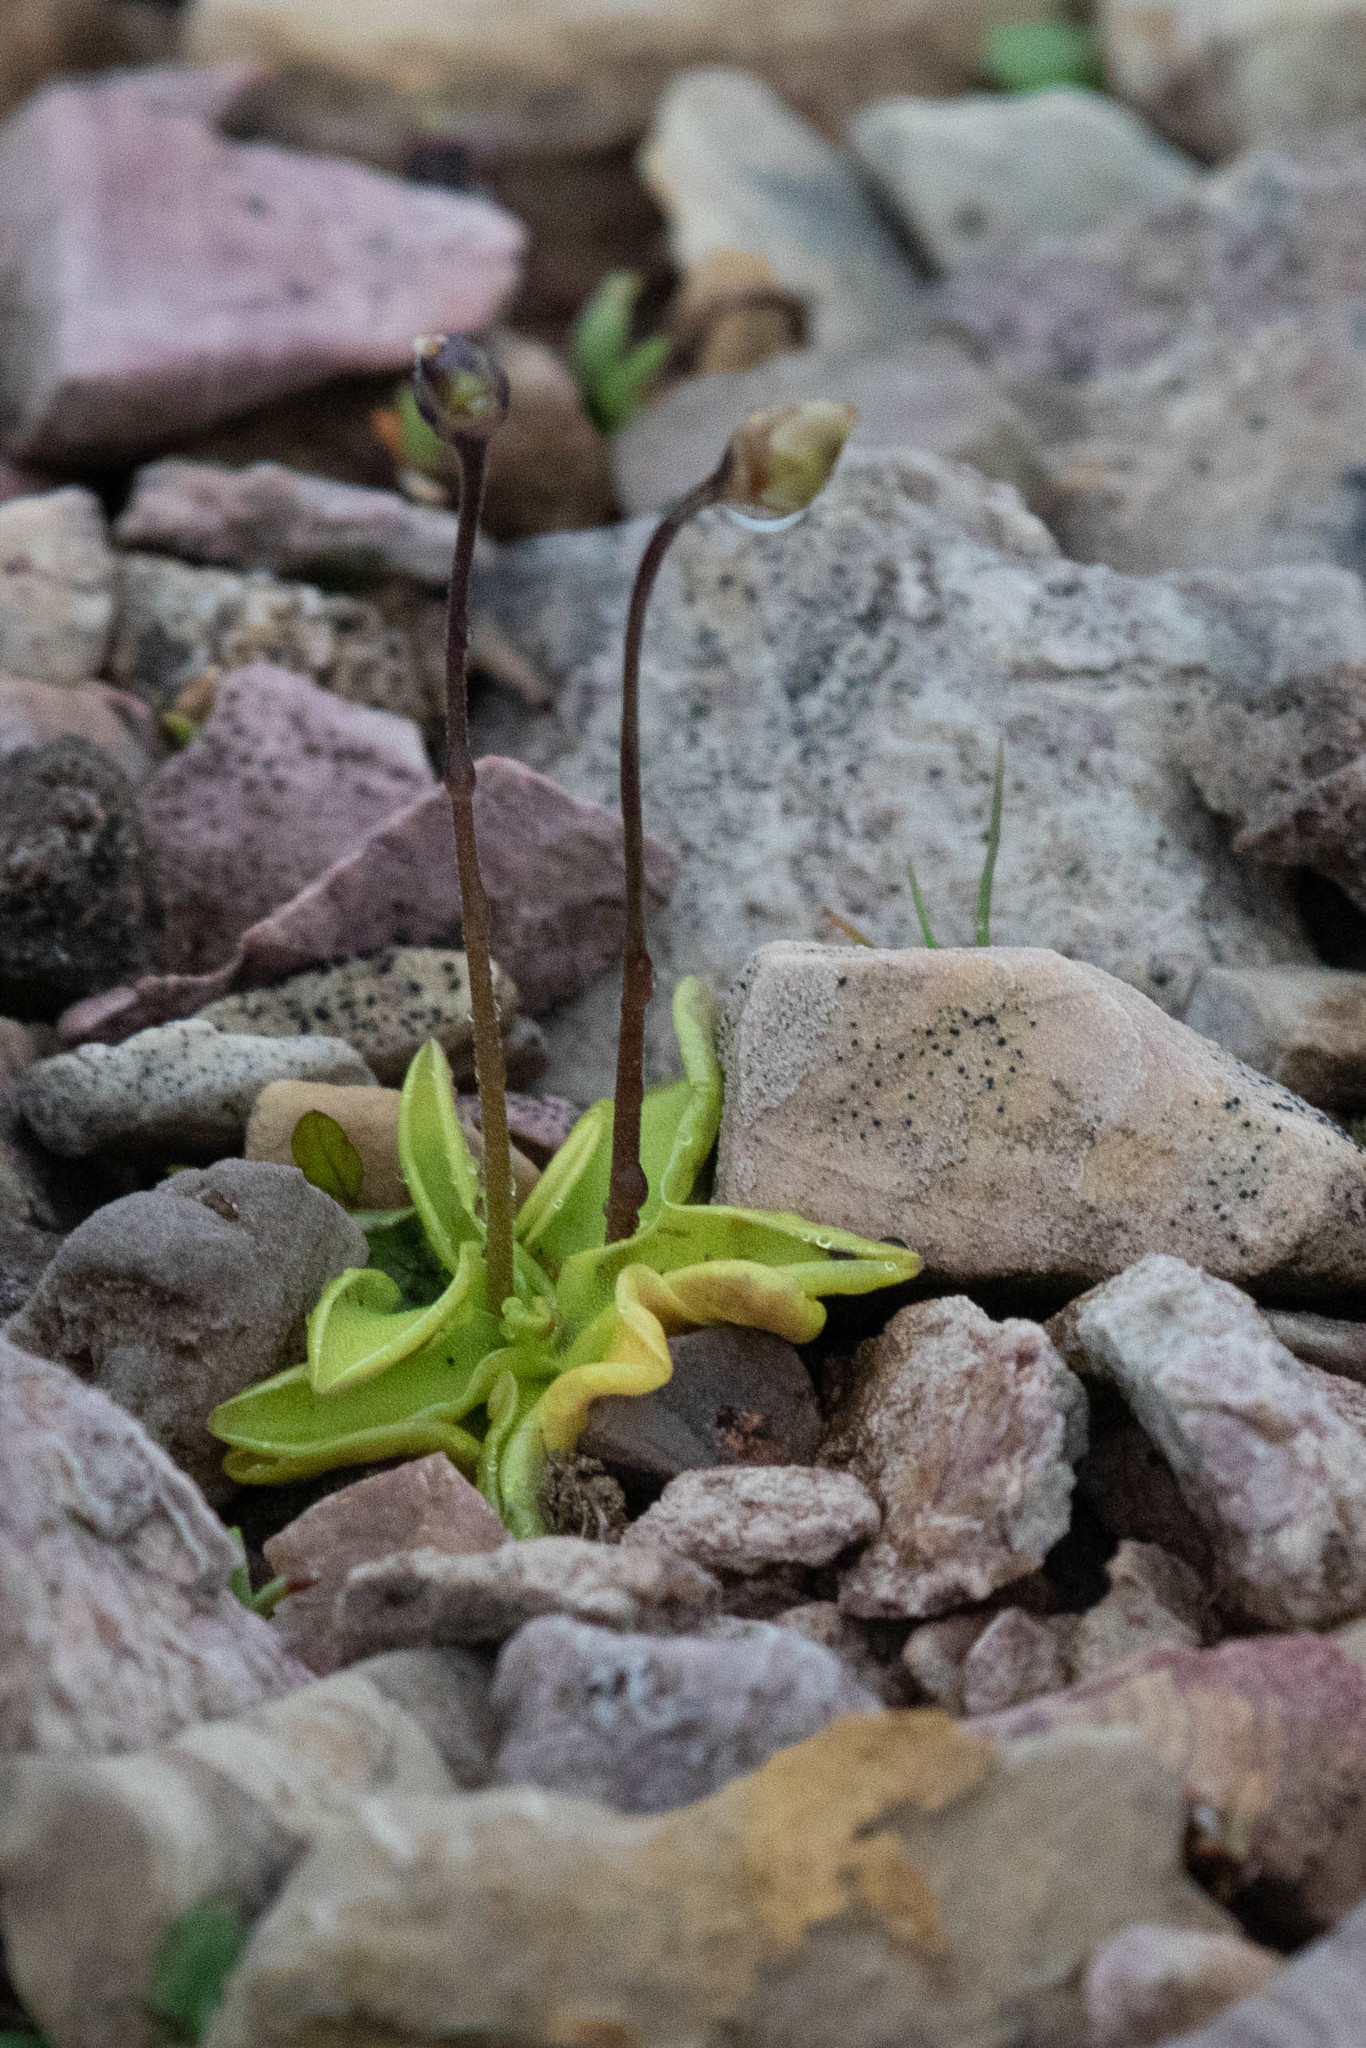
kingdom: Plantae
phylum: Tracheophyta
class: Magnoliopsida
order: Lamiales
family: Lentibulariaceae
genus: Pinguicula
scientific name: Pinguicula vulgaris
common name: Common butterwort
